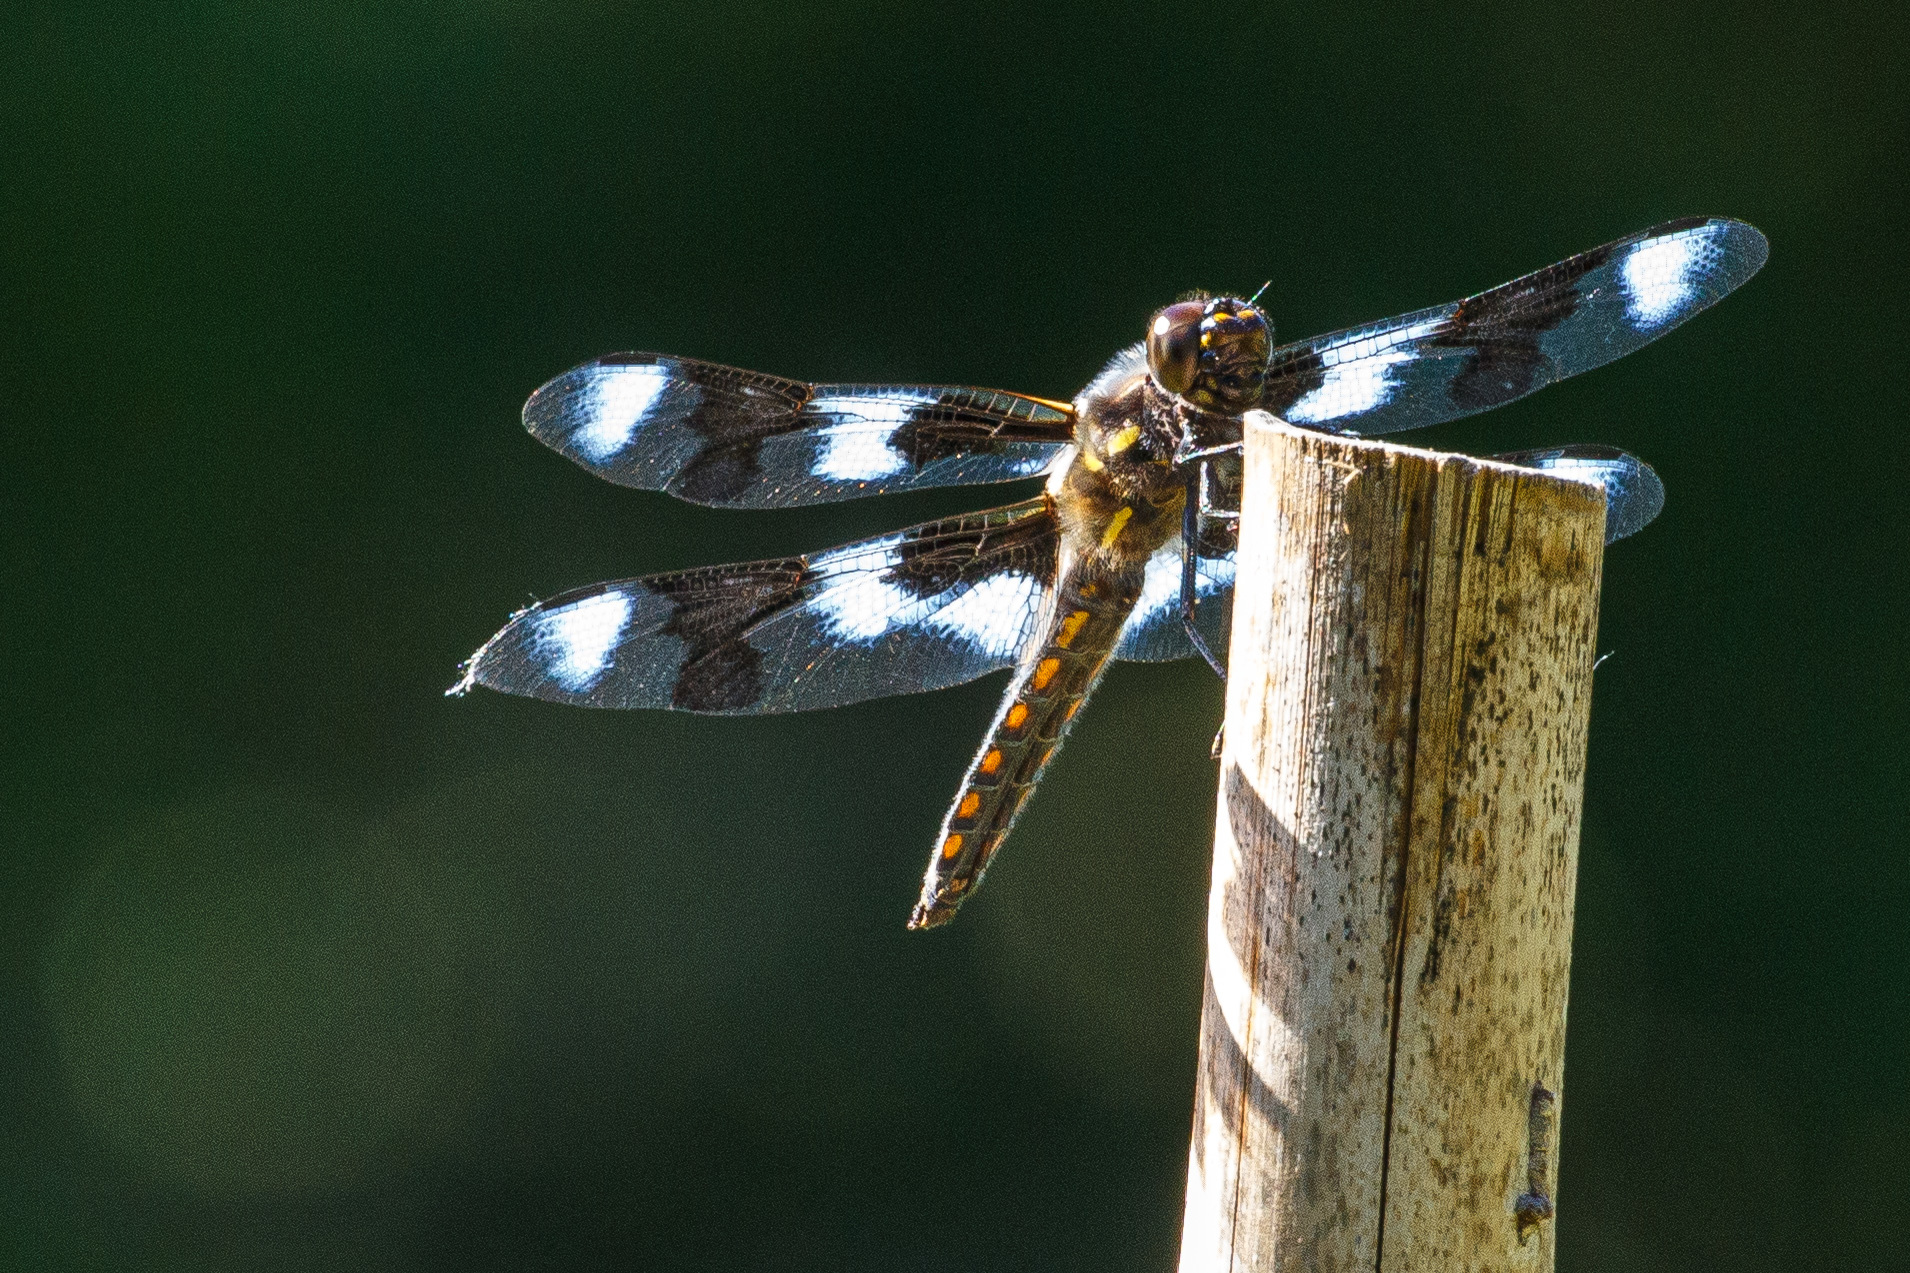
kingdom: Animalia
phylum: Arthropoda
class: Insecta
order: Odonata
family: Libellulidae
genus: Libellula
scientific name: Libellula forensis
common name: Eight-spotted skimmer
